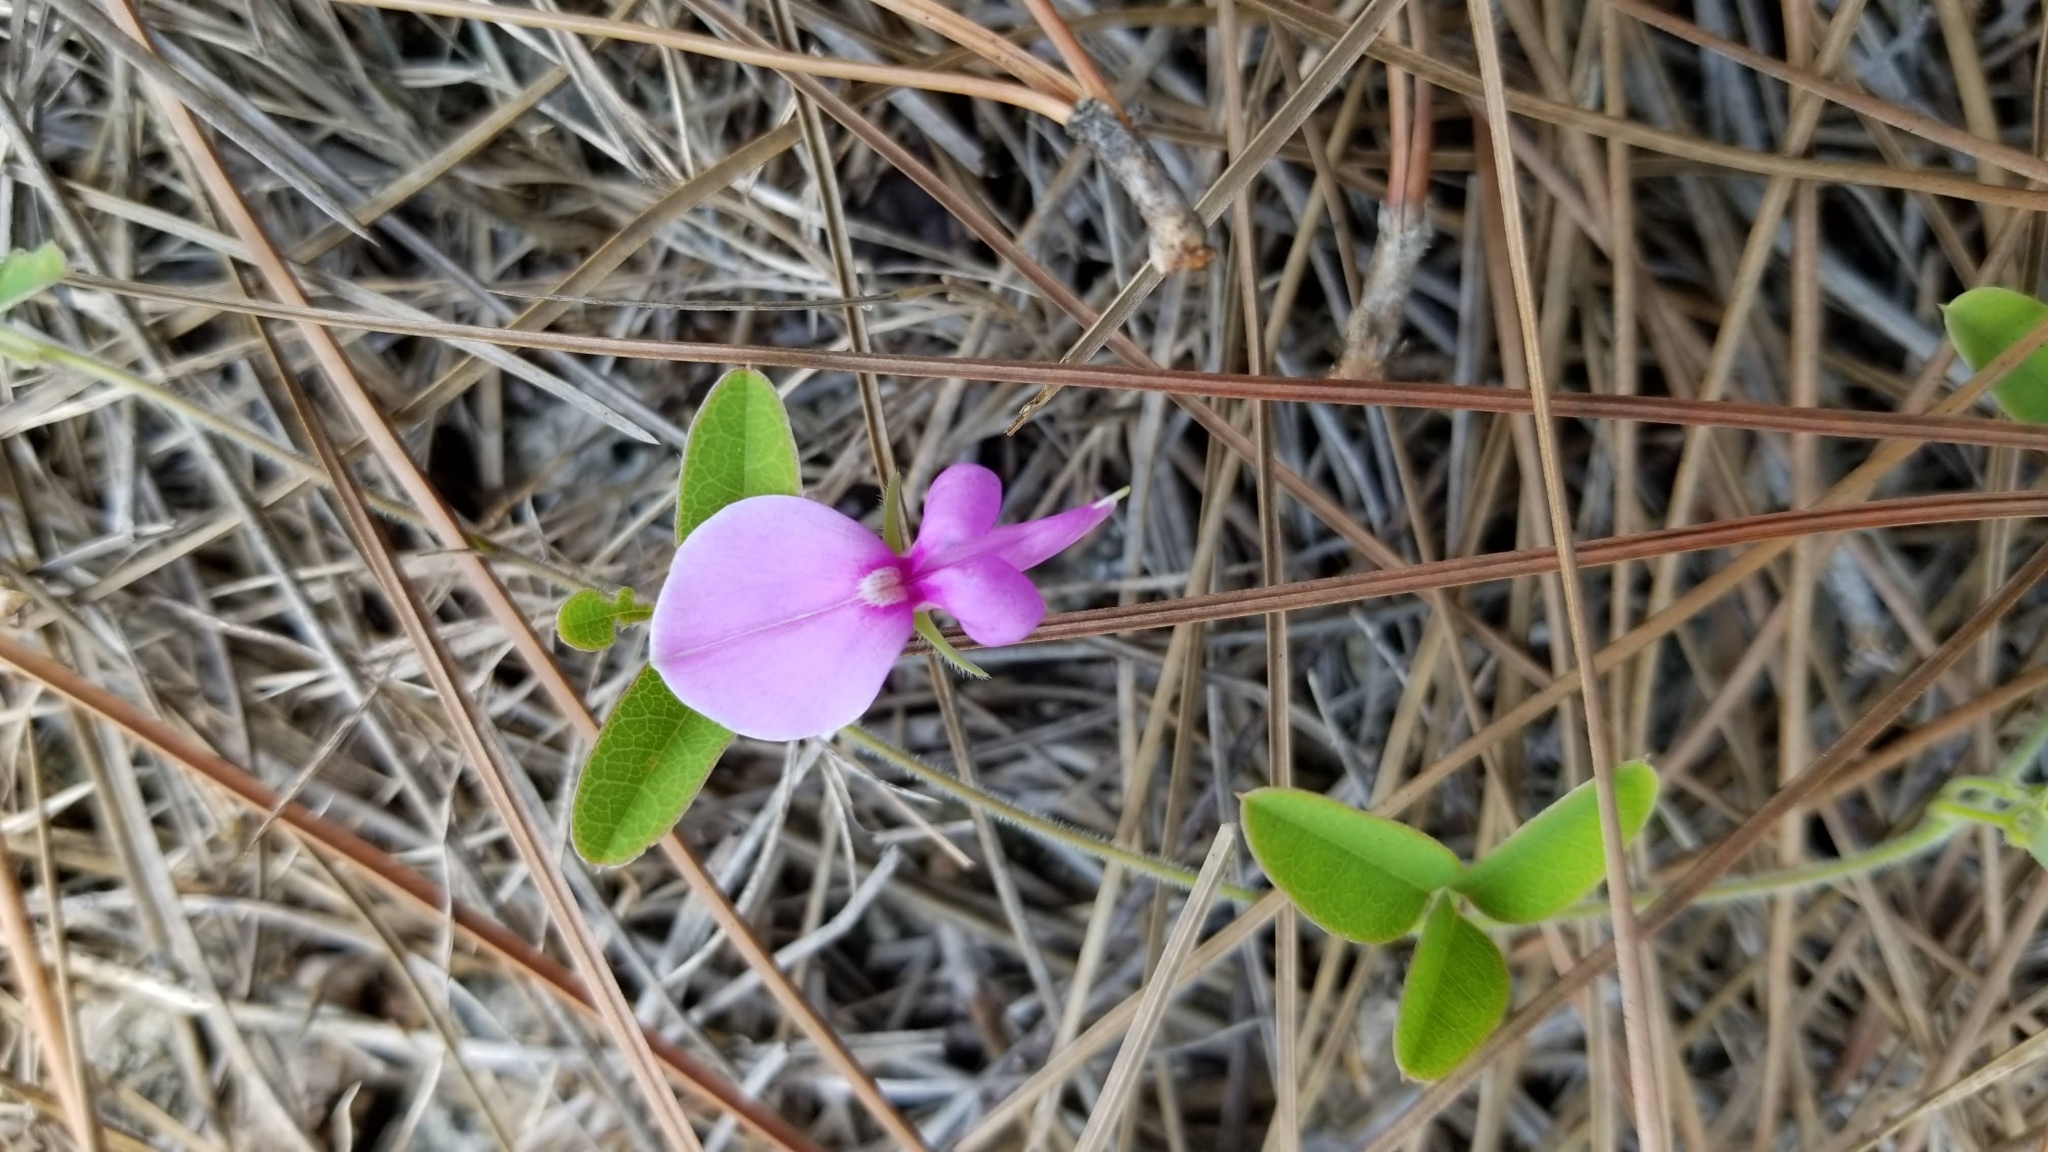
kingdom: Plantae
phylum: Tracheophyta
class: Magnoliopsida
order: Fabales
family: Fabaceae
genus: Galactia
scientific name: Galactia smallii
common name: Small's milk-pea
